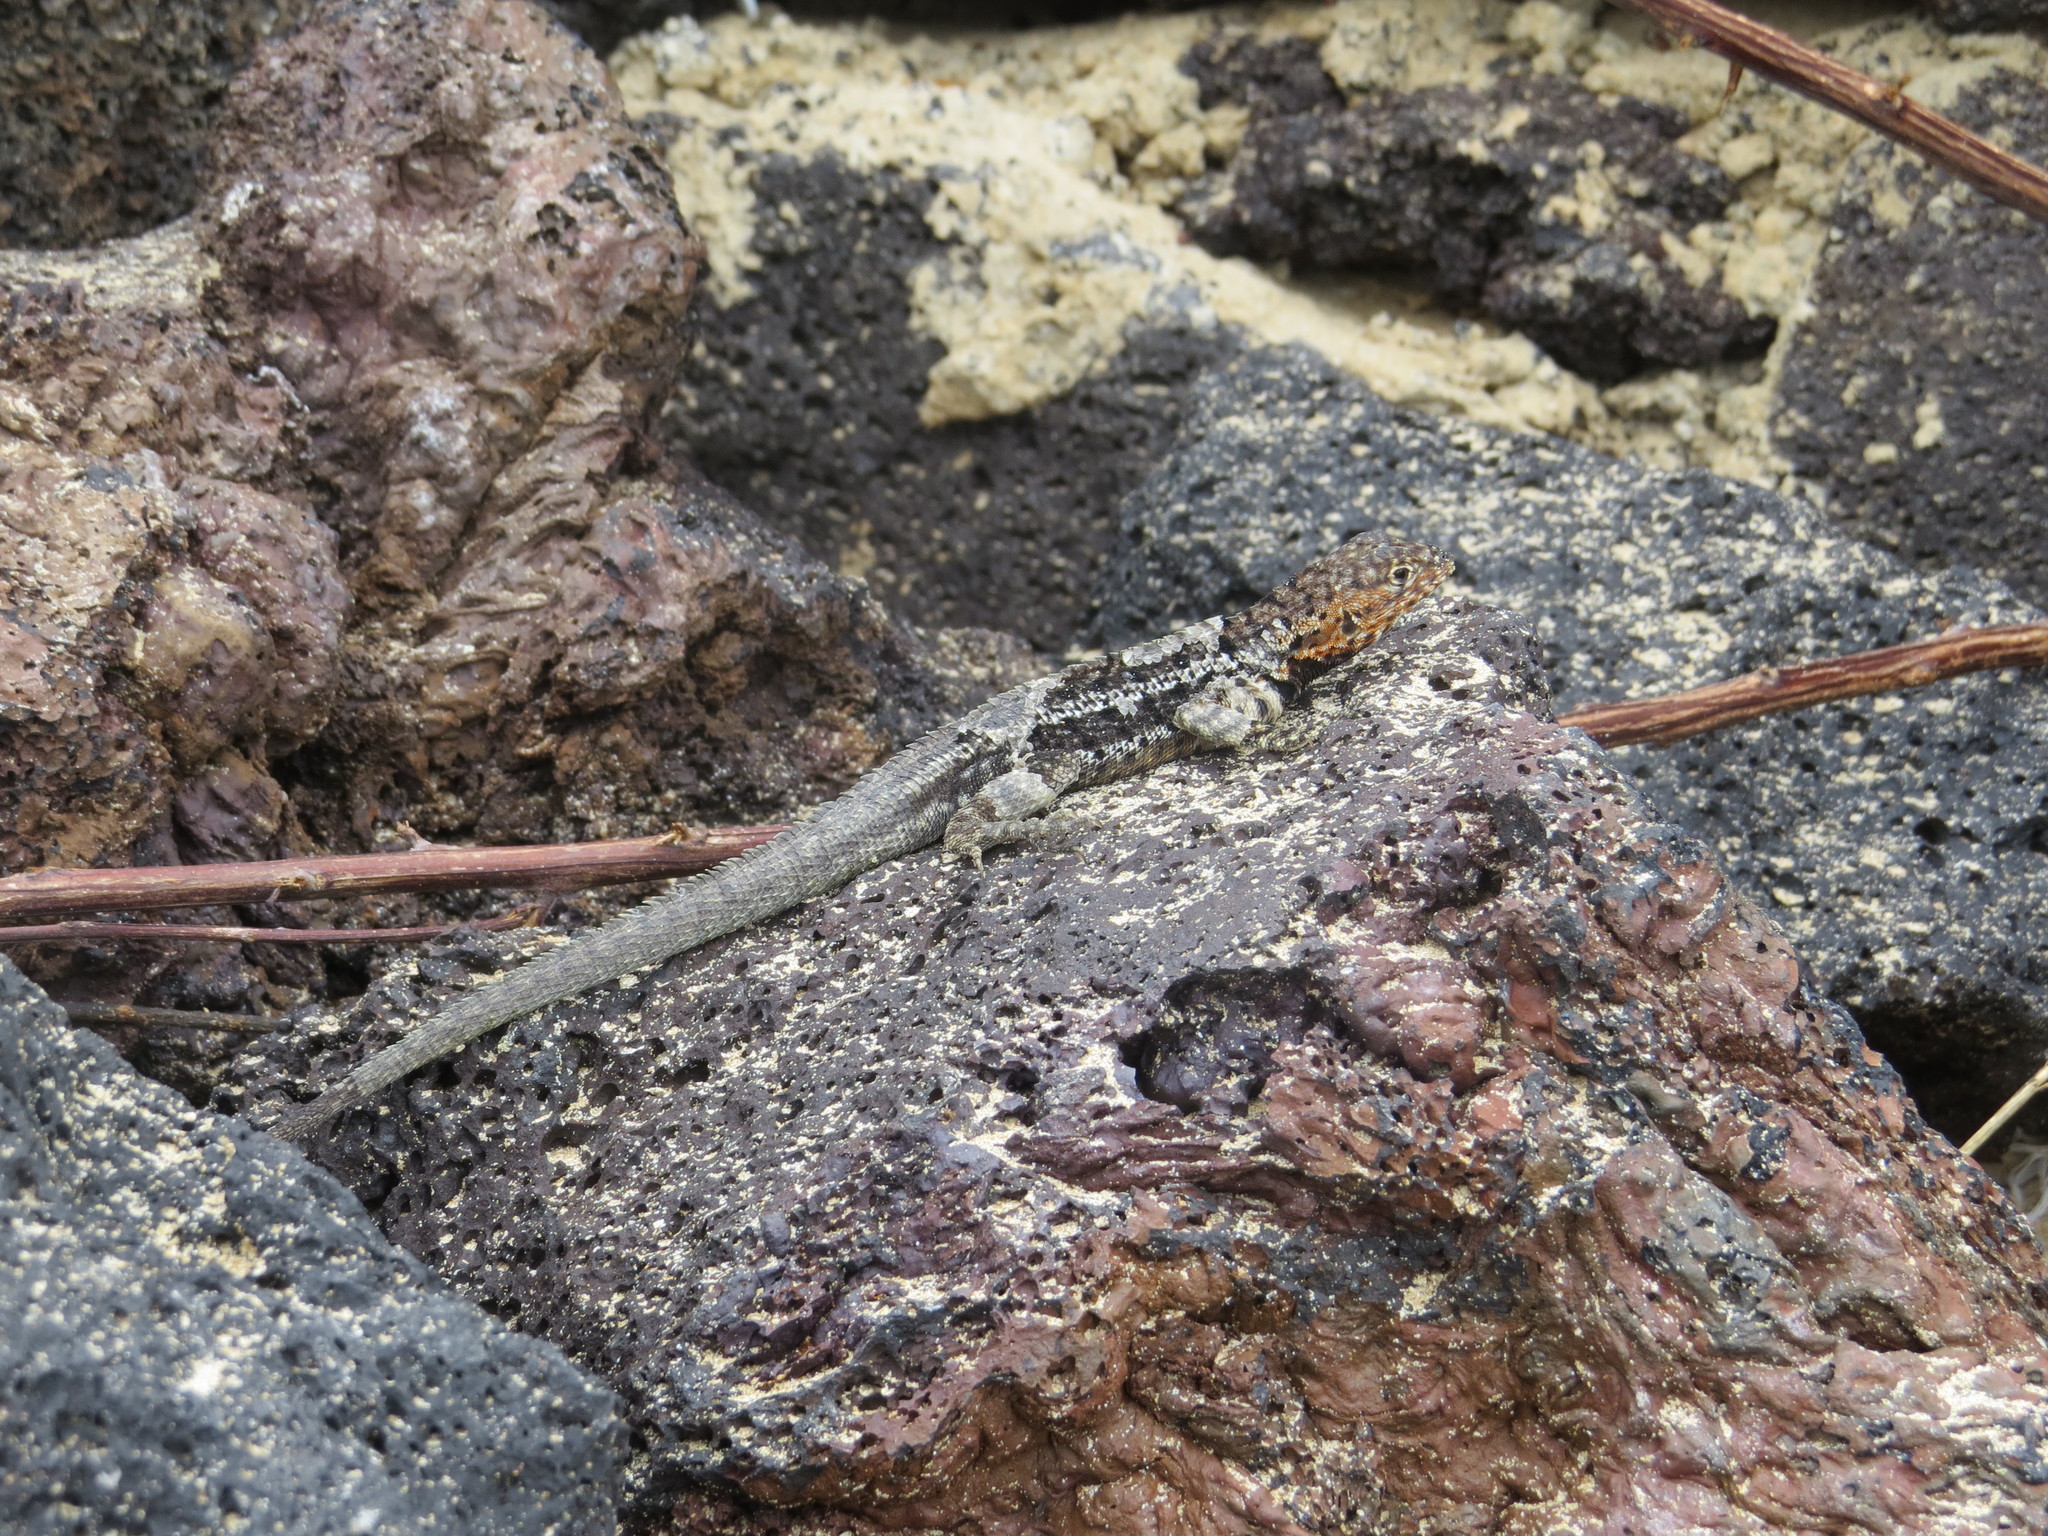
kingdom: Animalia
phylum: Chordata
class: Squamata
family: Tropiduridae
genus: Microlophus
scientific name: Microlophus albemarlensis
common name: Galapagos lava lizard
